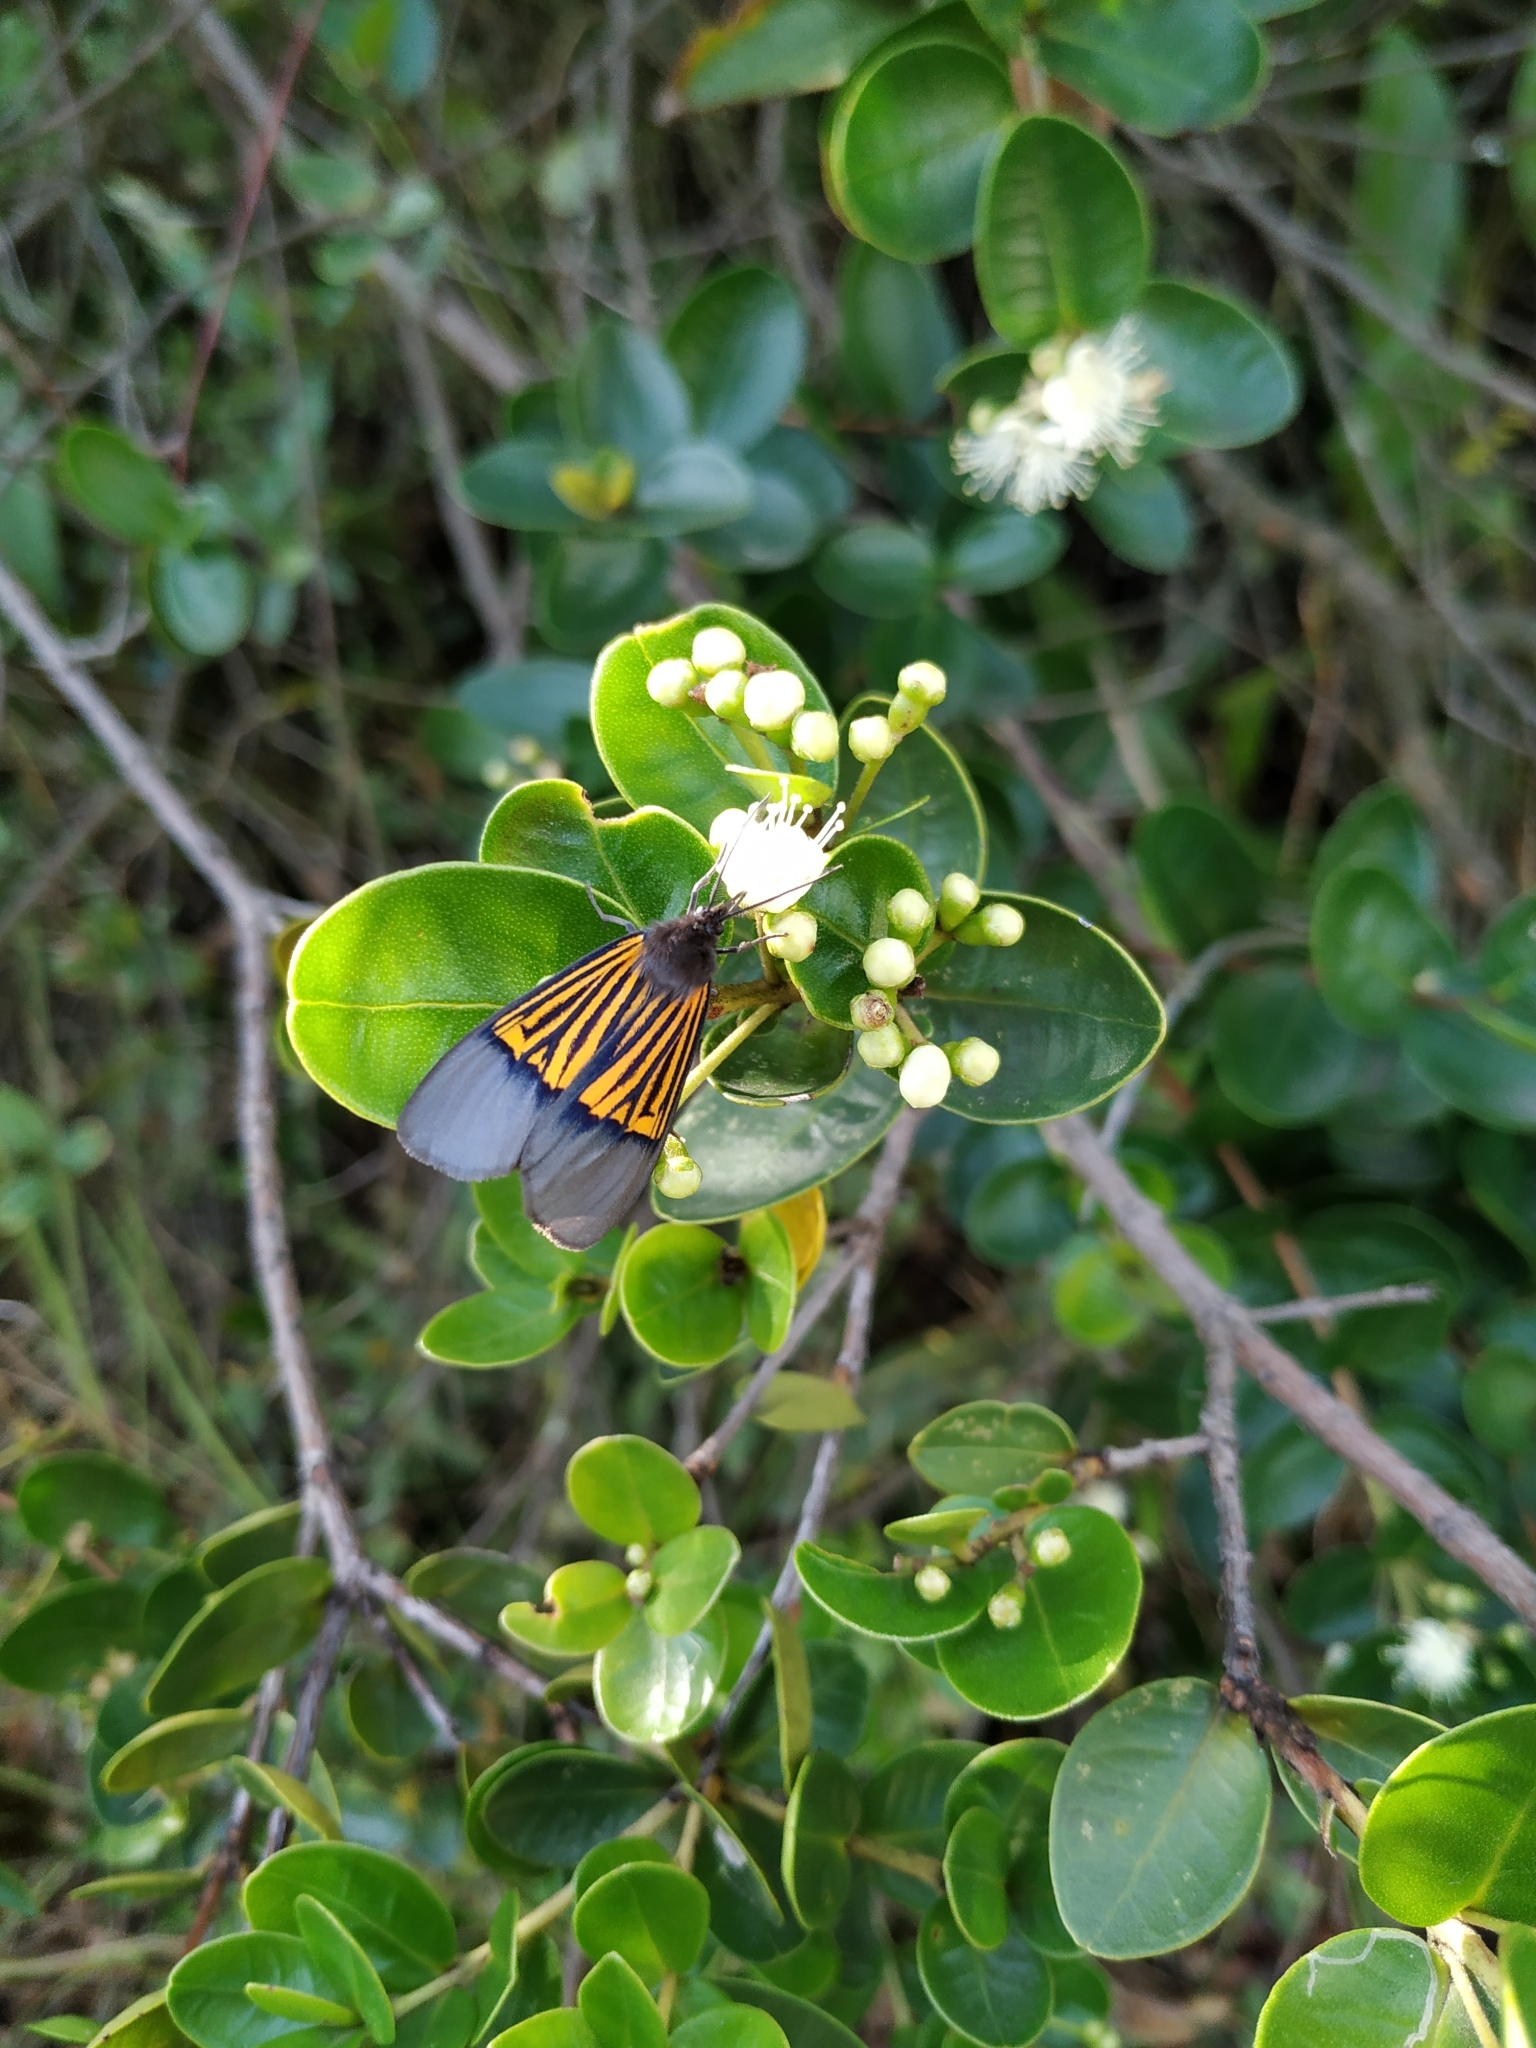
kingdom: Animalia
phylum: Arthropoda
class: Insecta
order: Lepidoptera
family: Notodontidae
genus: Scea
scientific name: Scea
